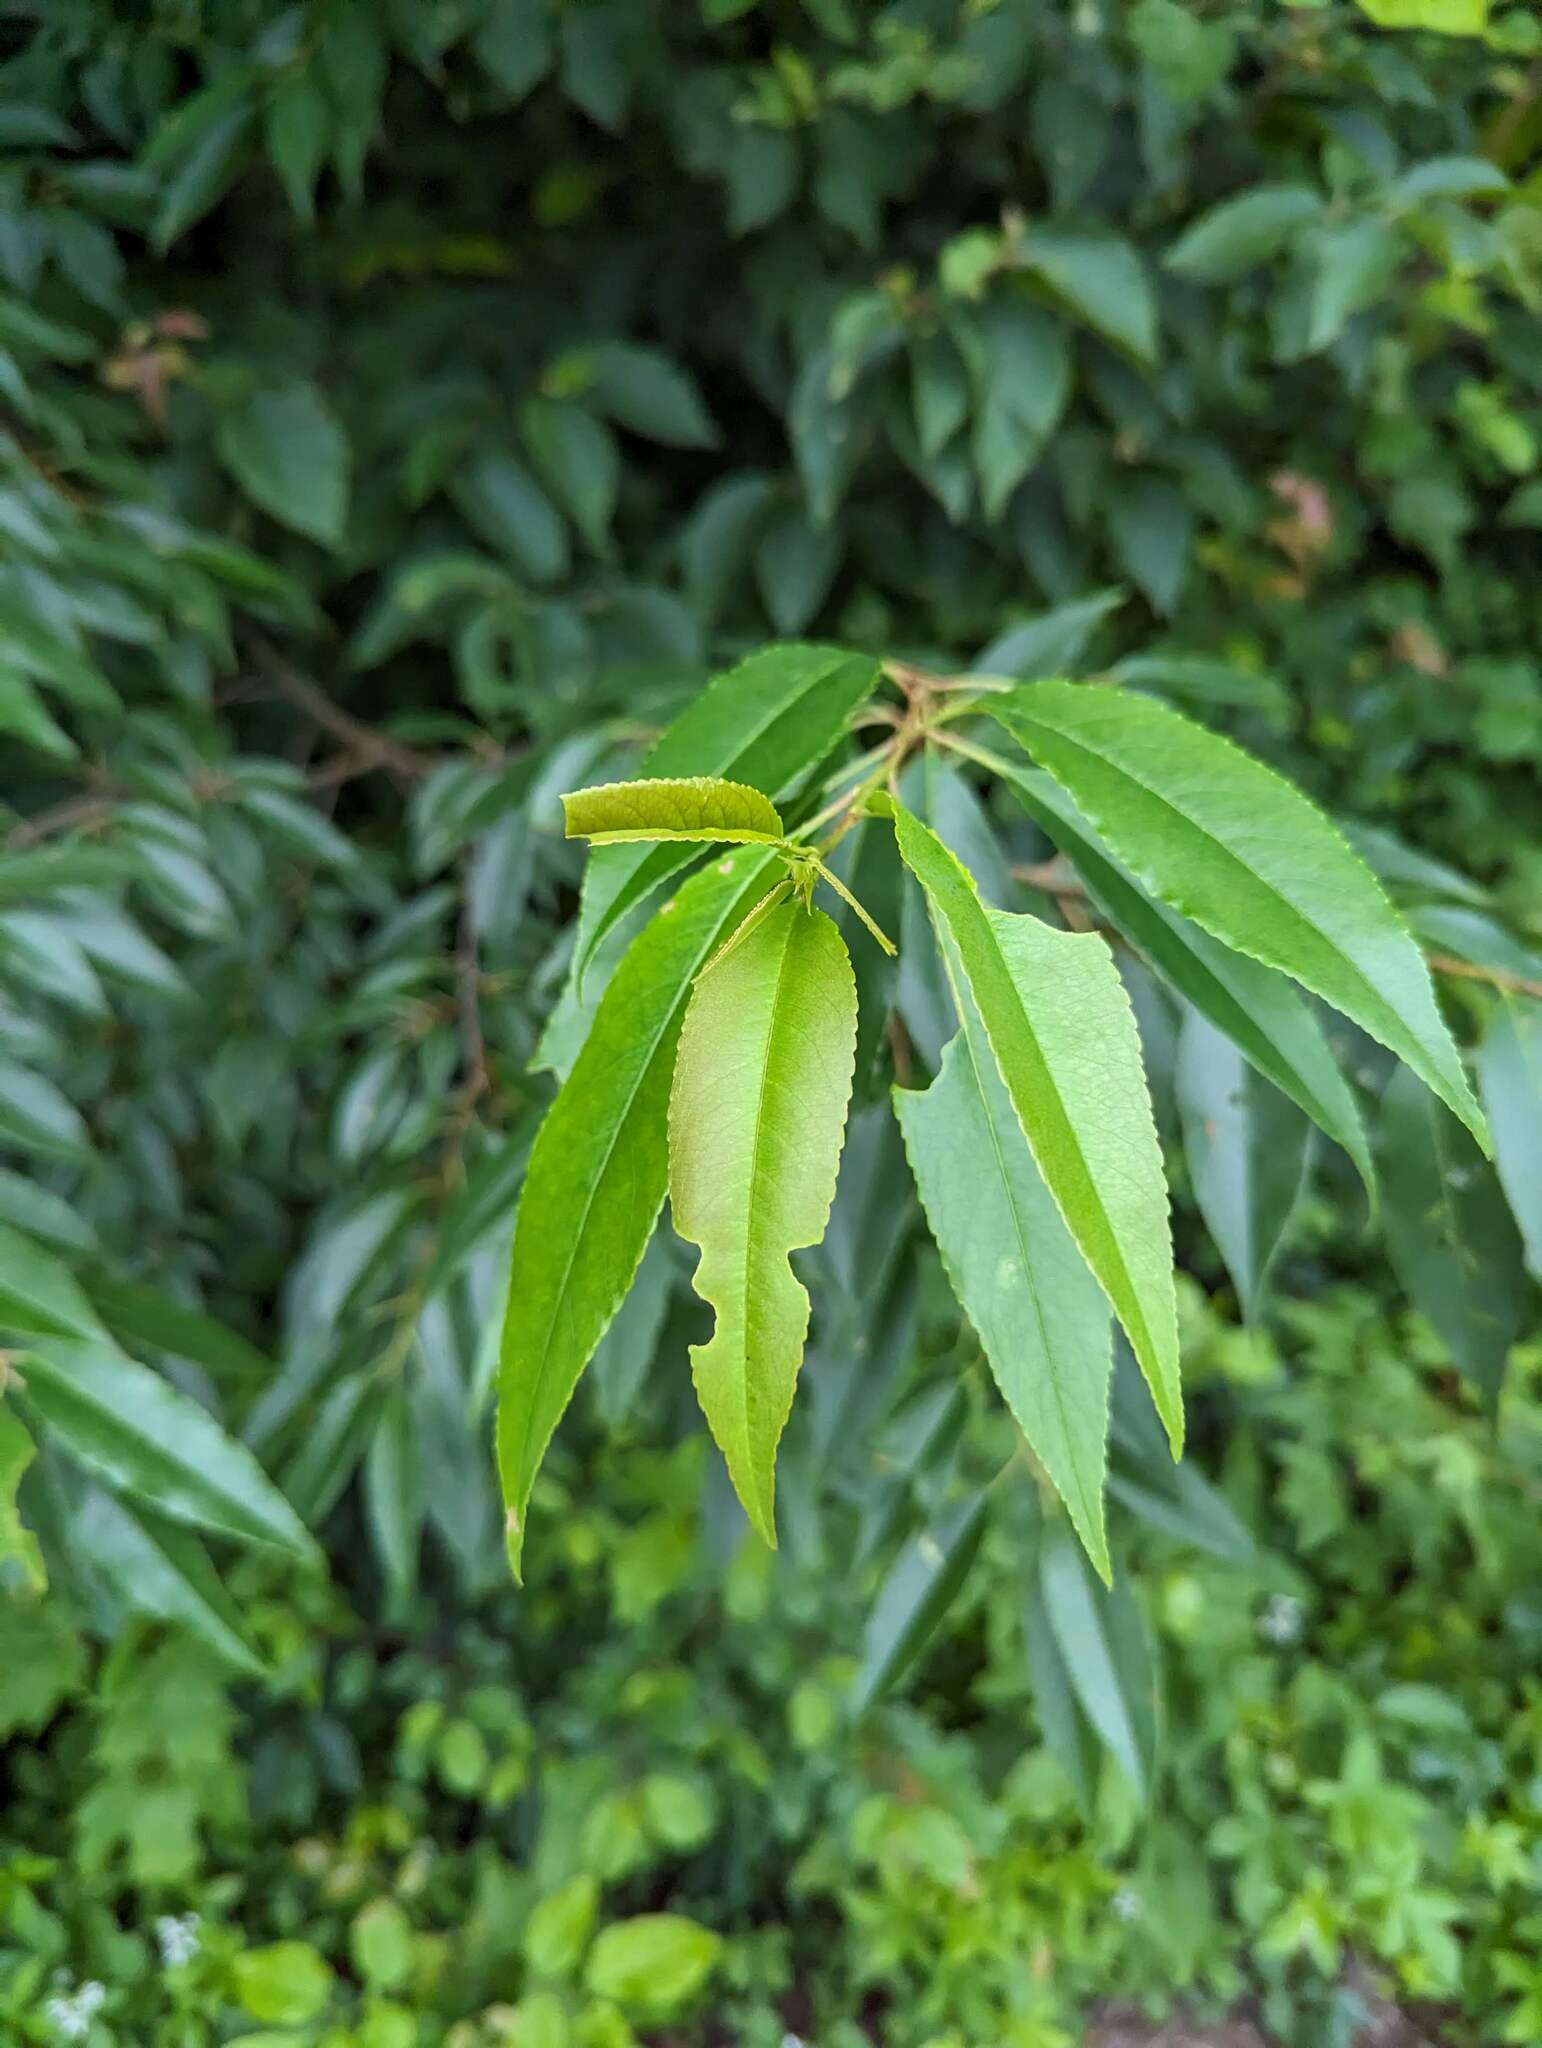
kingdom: Plantae
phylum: Tracheophyta
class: Magnoliopsida
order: Rosales
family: Rosaceae
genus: Prunus
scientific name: Prunus serotina
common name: Black cherry
